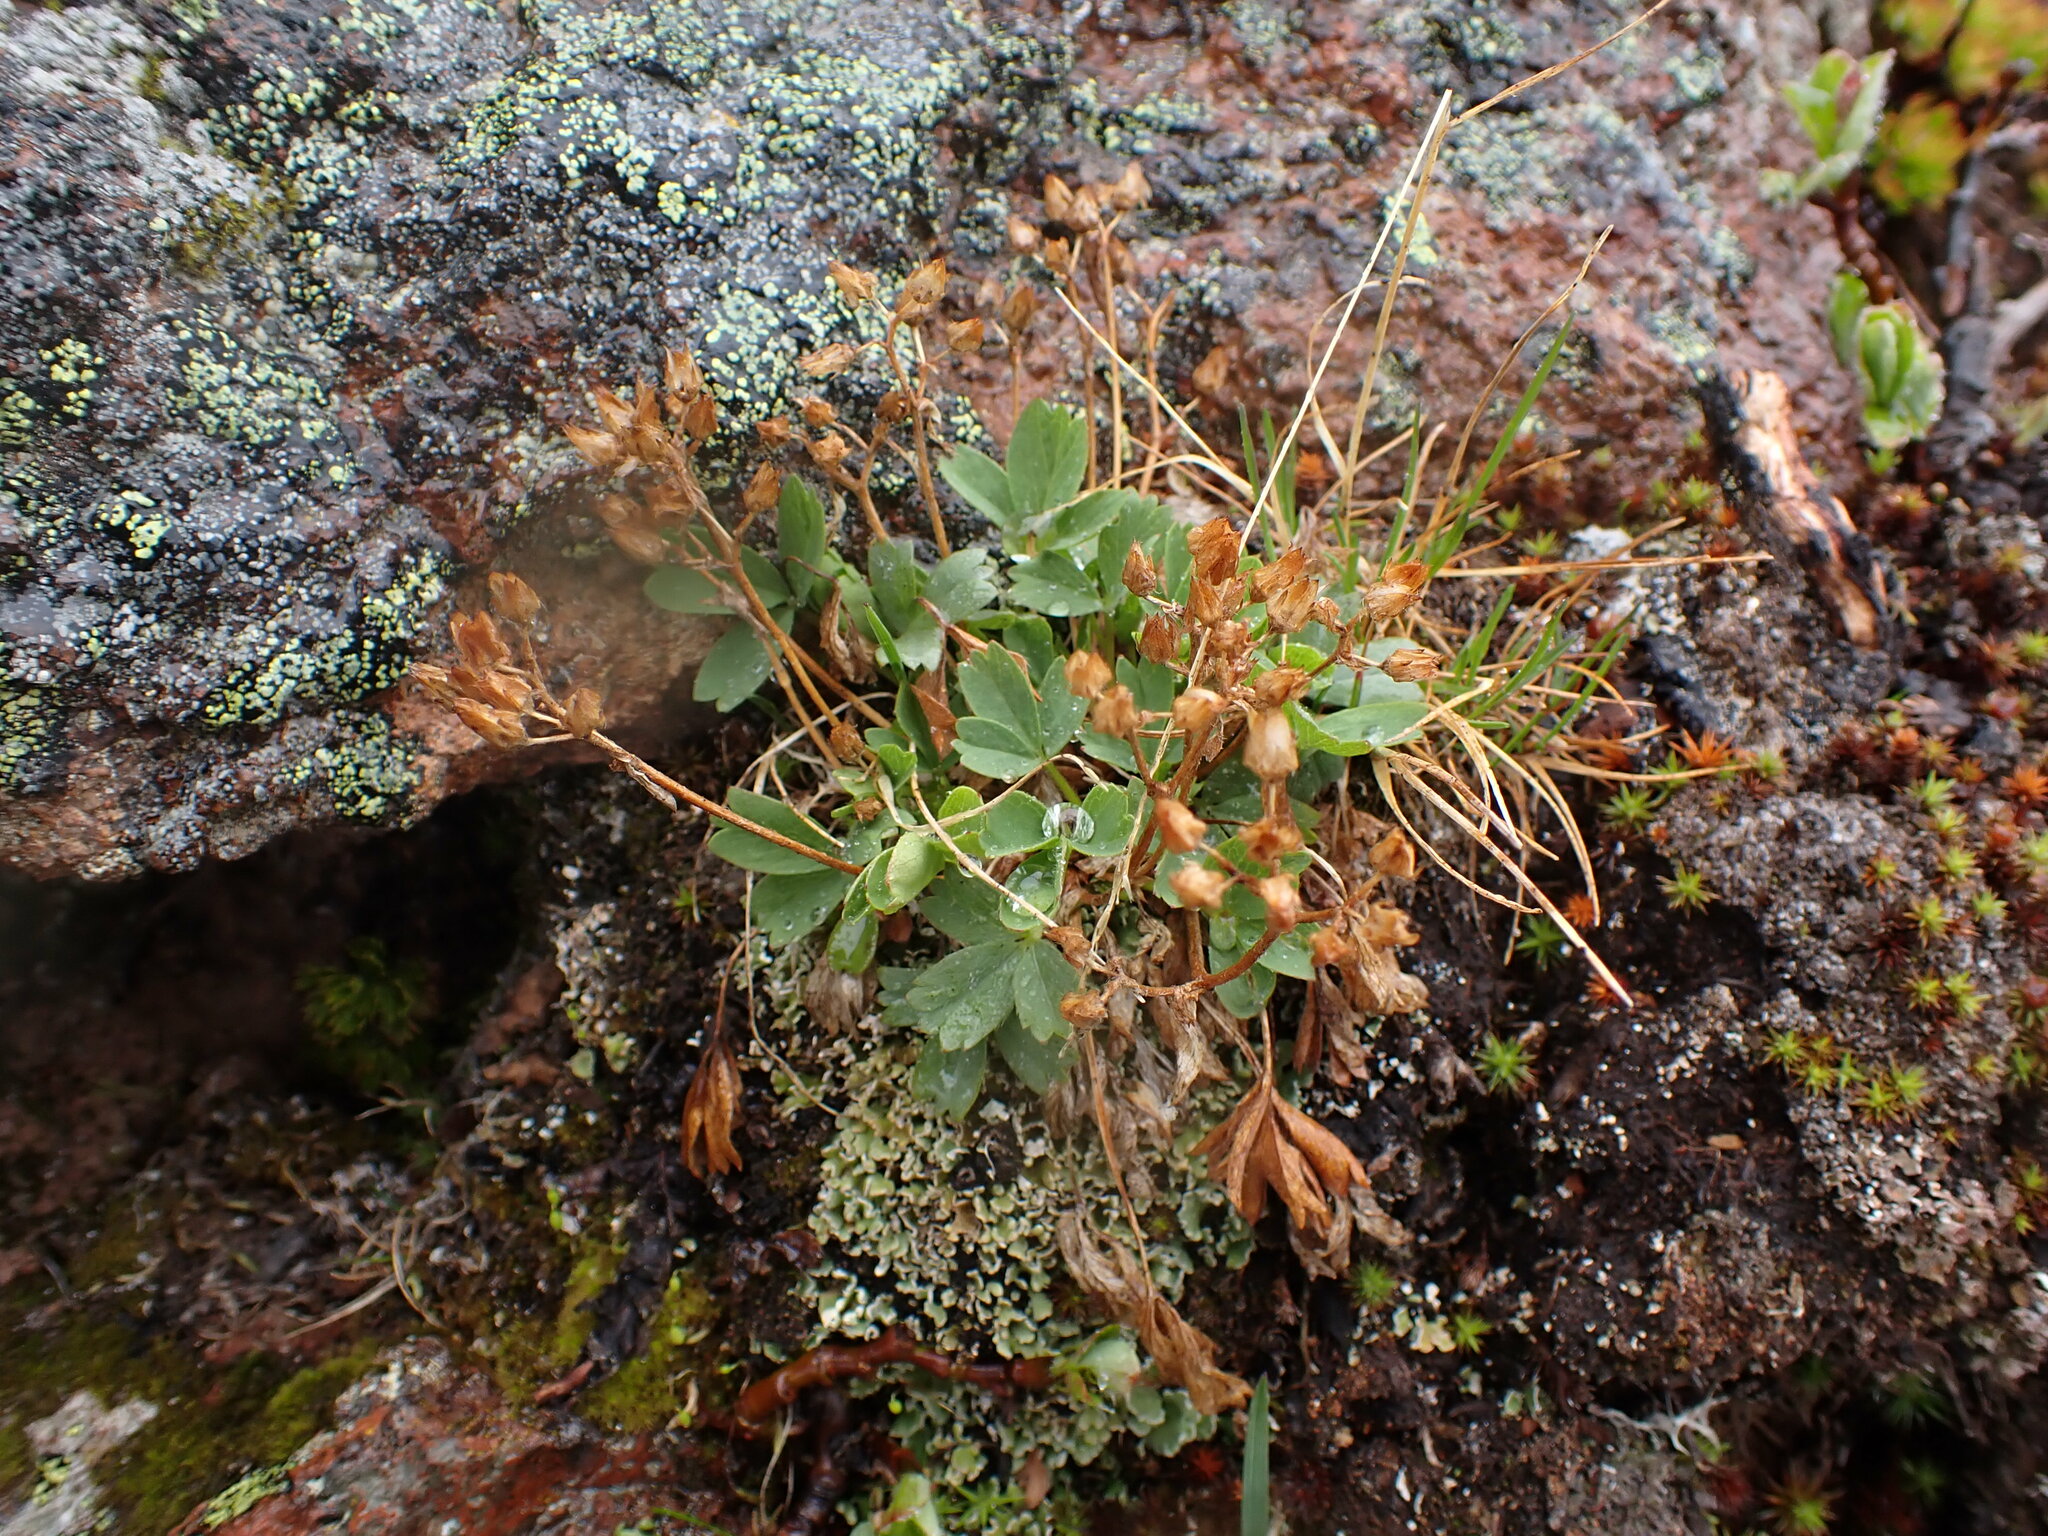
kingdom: Plantae
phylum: Tracheophyta
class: Magnoliopsida
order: Rosales
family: Rosaceae
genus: Sibbaldia
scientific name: Sibbaldia procumbens
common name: Creeping sibbaldia
